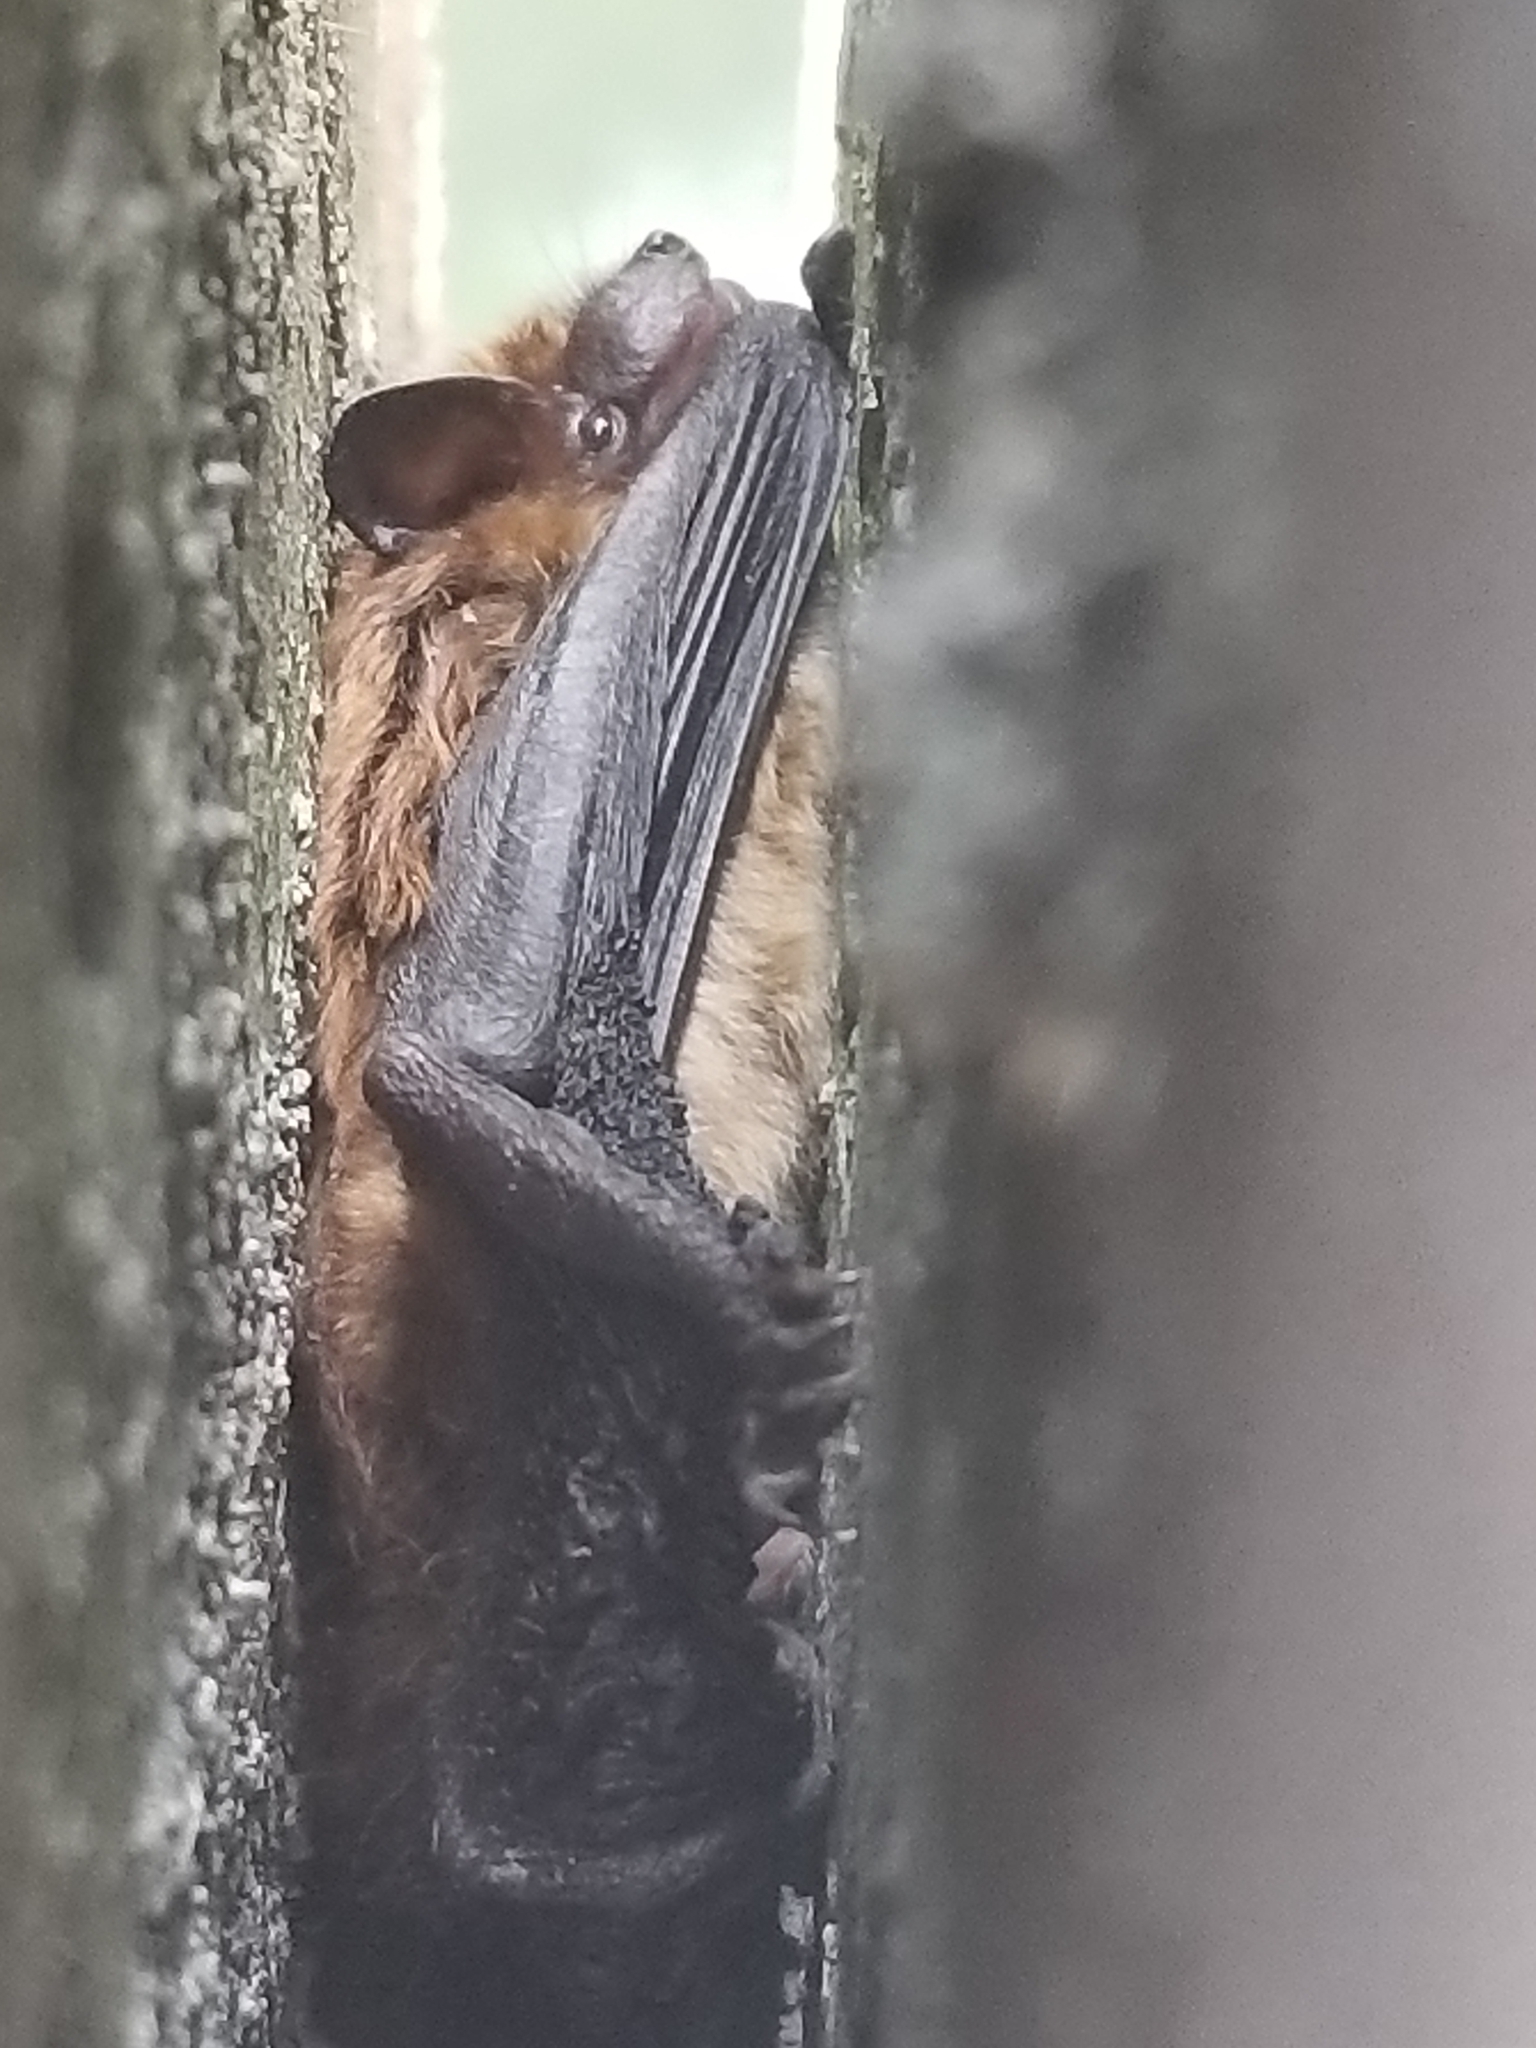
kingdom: Animalia
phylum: Chordata
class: Mammalia
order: Chiroptera
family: Vespertilionidae
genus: Eptesicus
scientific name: Eptesicus fuscus
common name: Big brown bat
